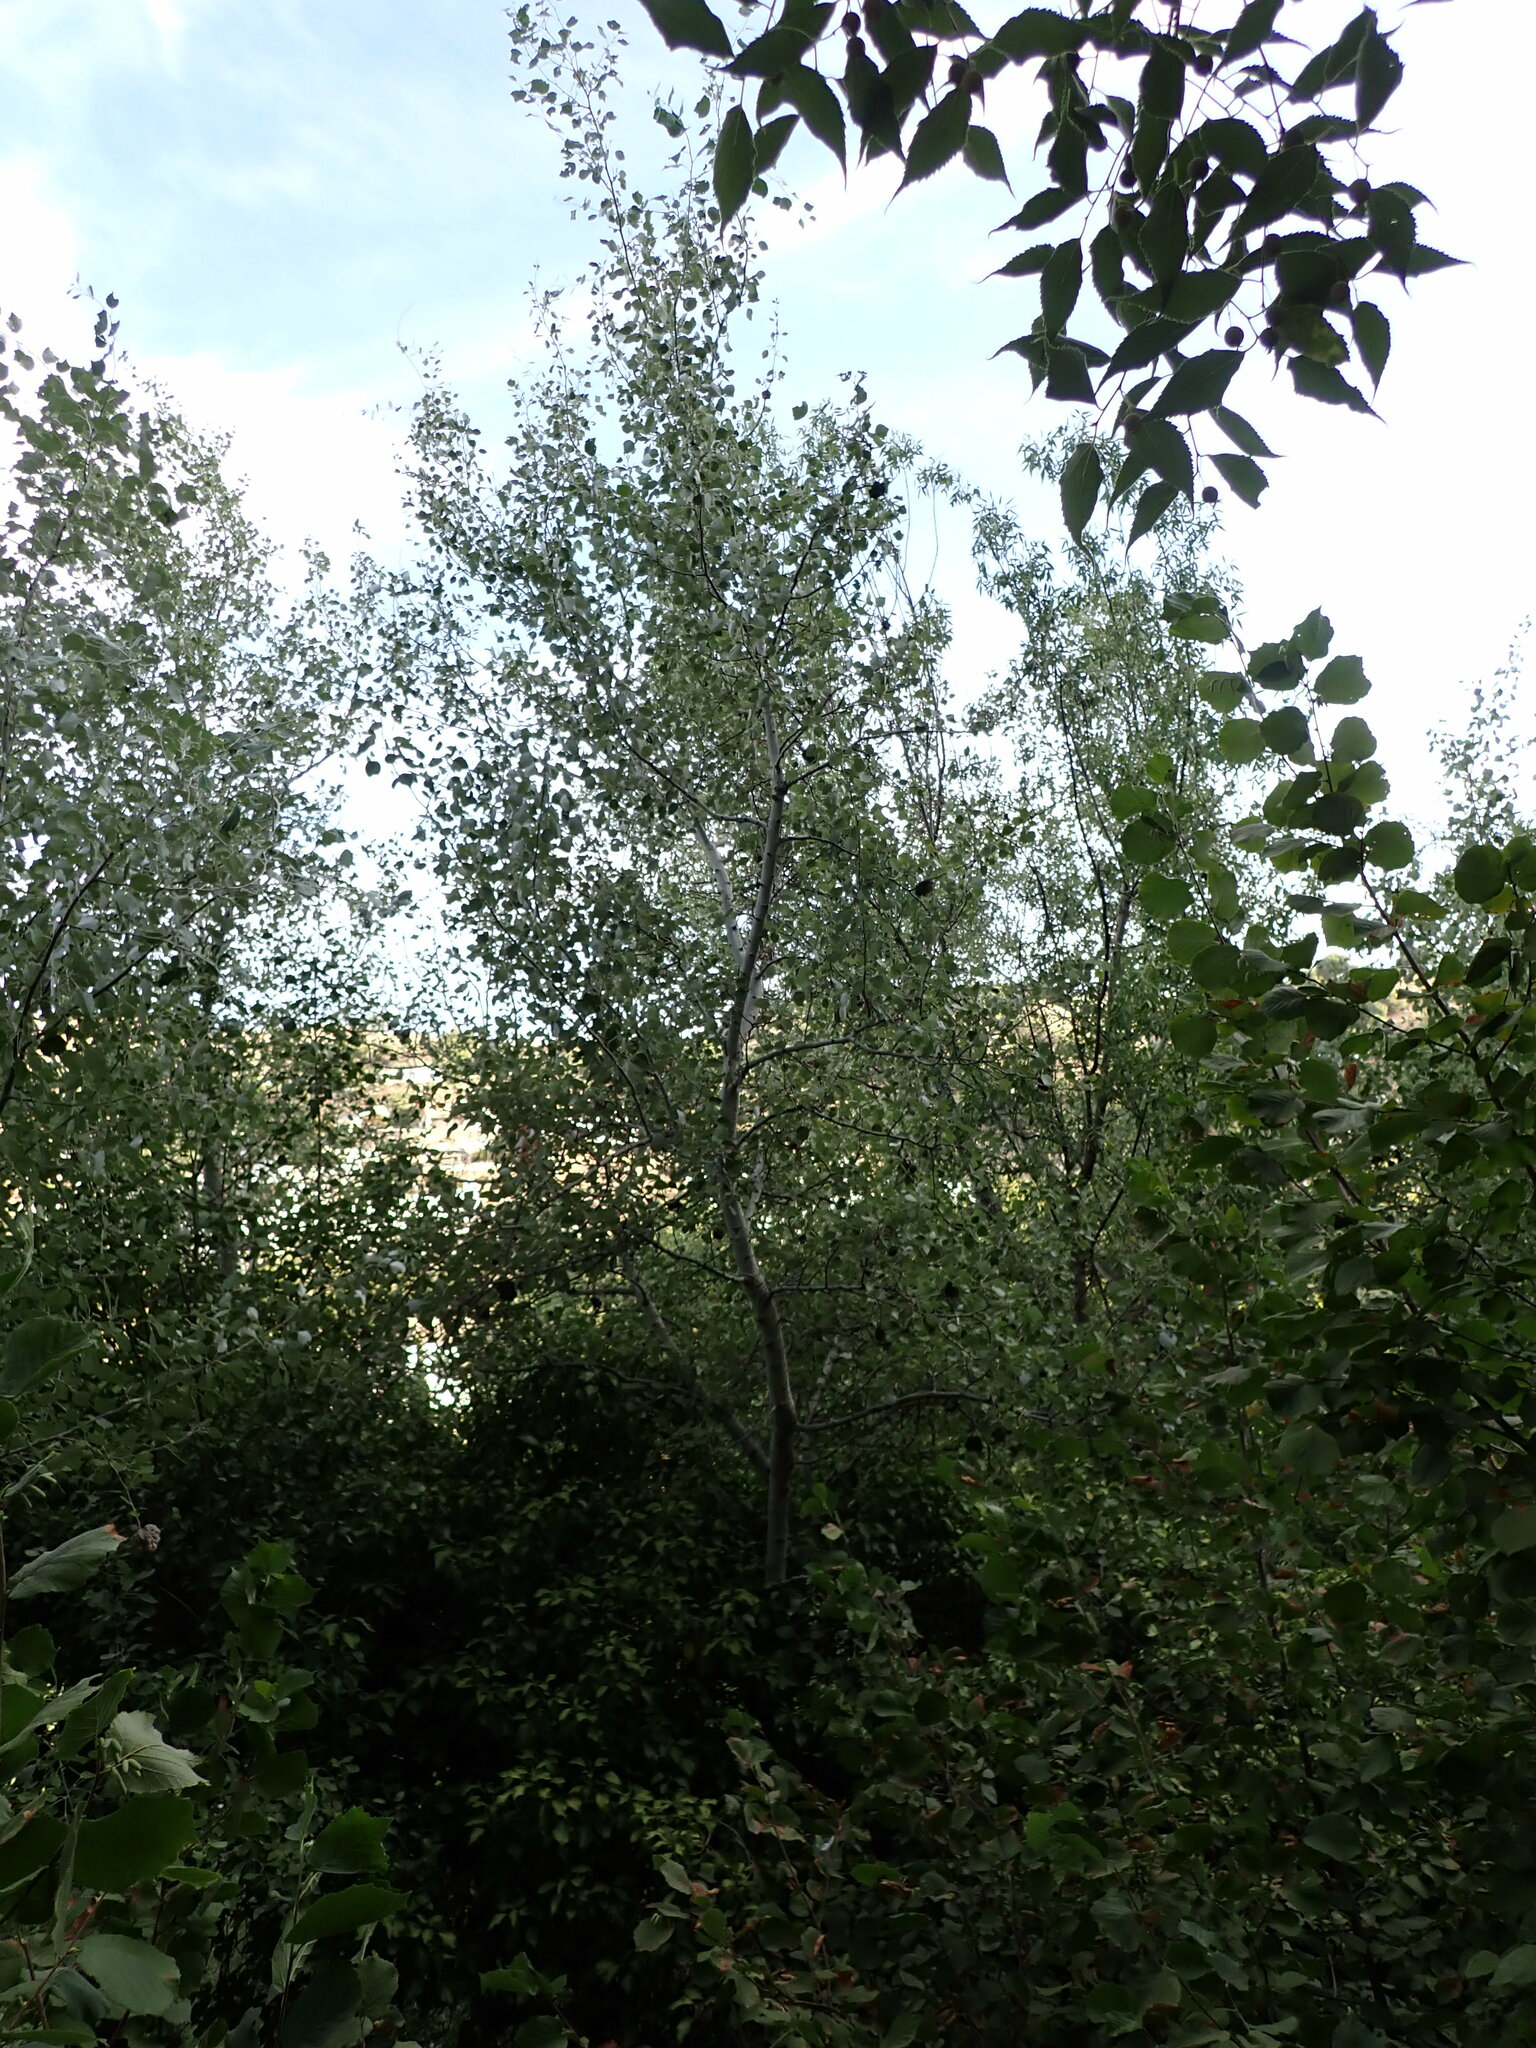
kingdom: Plantae
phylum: Tracheophyta
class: Magnoliopsida
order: Malpighiales
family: Salicaceae
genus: Populus
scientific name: Populus alba
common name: White poplar
